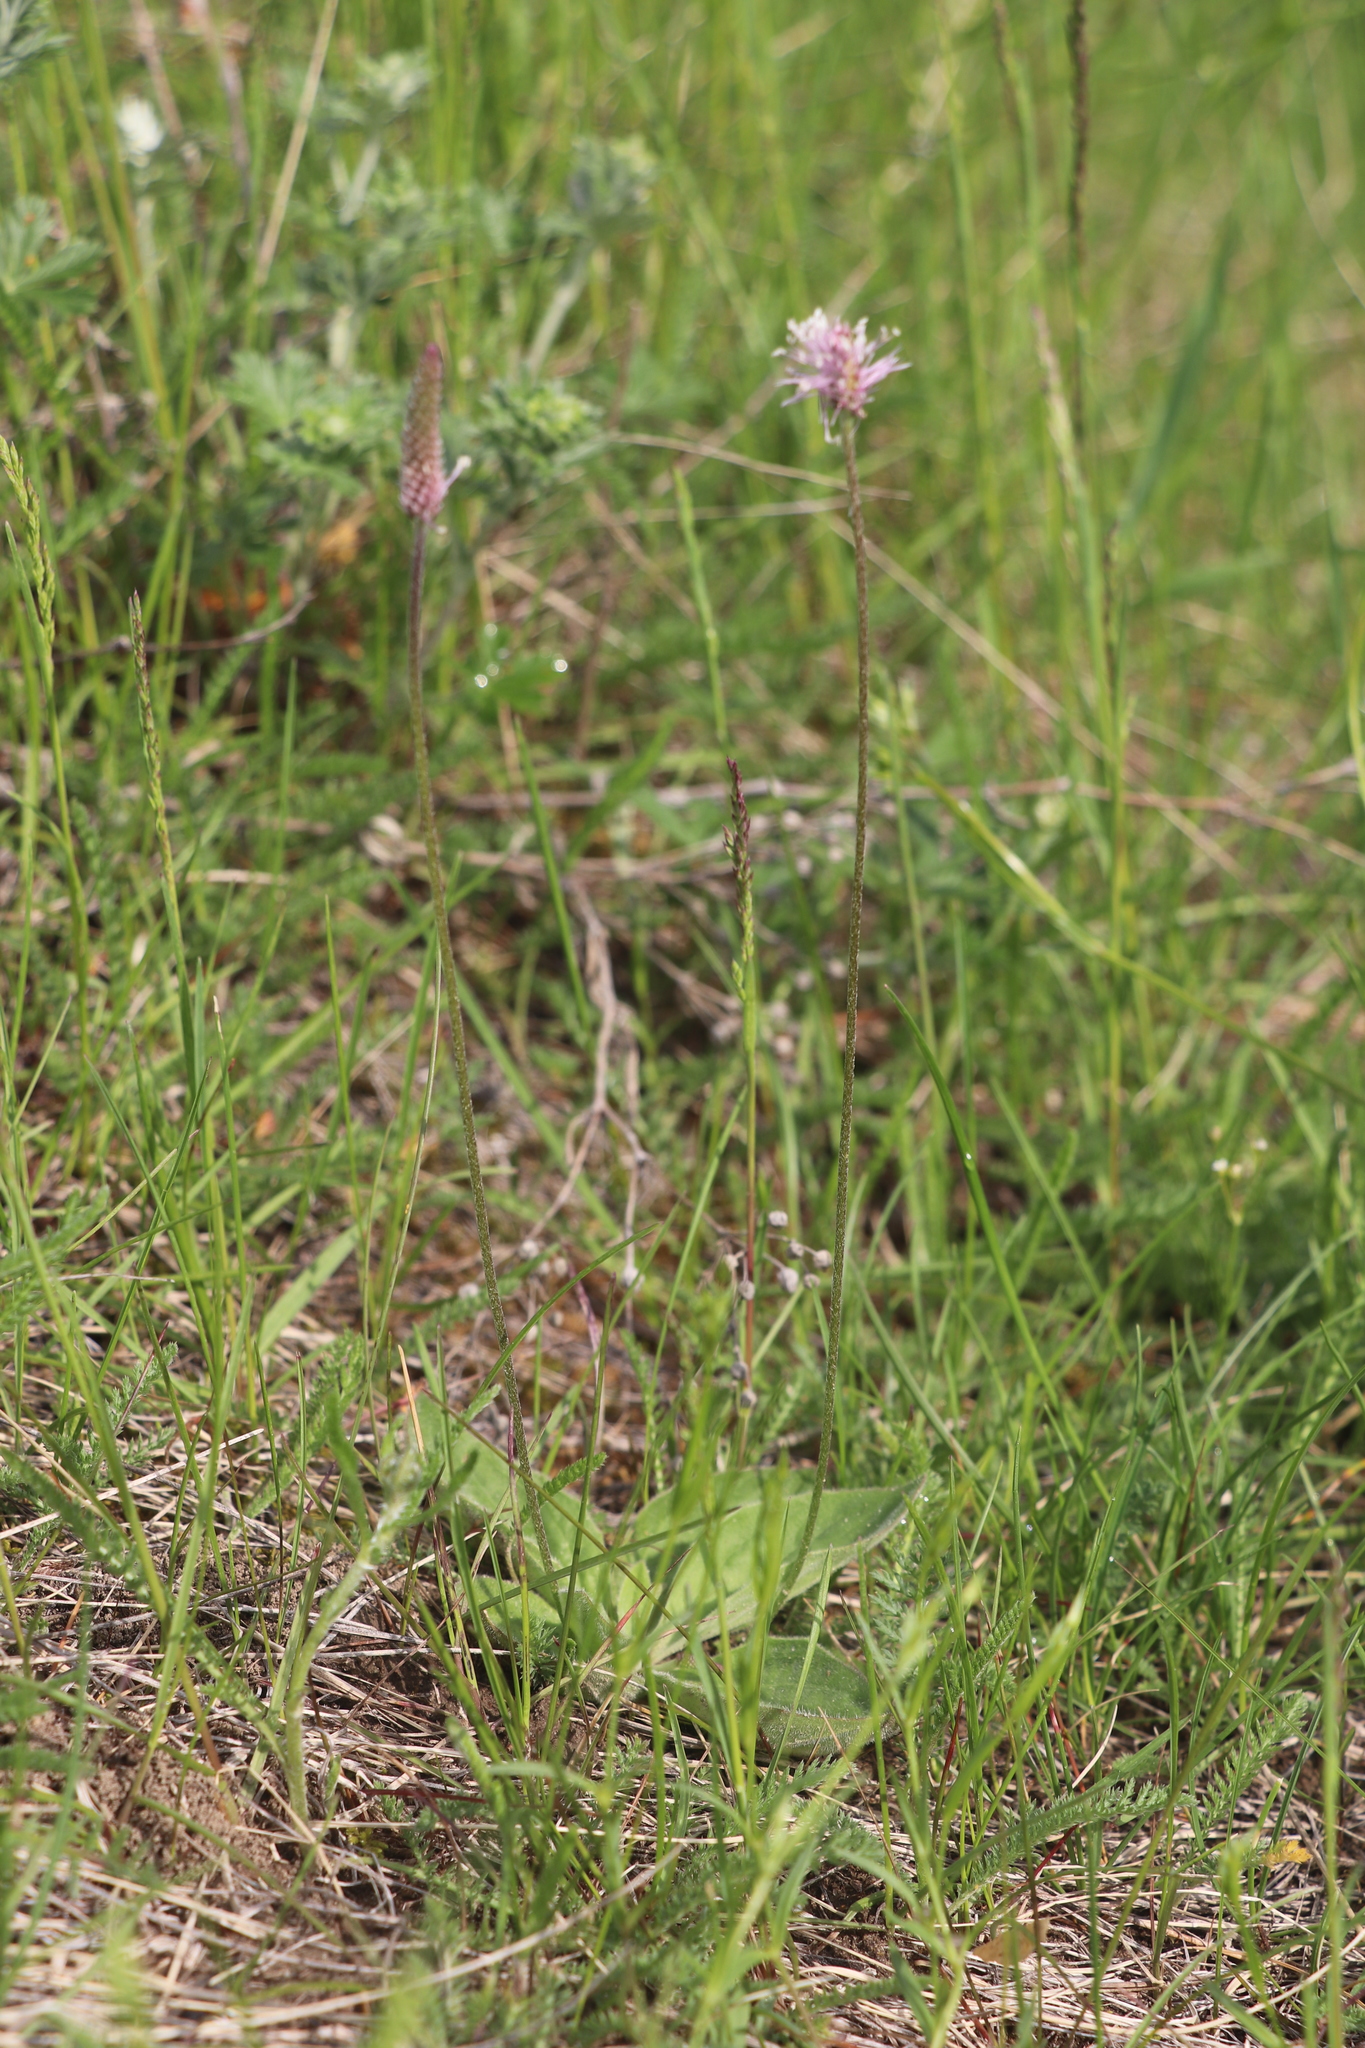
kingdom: Plantae
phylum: Tracheophyta
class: Magnoliopsida
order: Lamiales
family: Plantaginaceae
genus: Plantago
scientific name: Plantago media
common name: Hoary plantain
